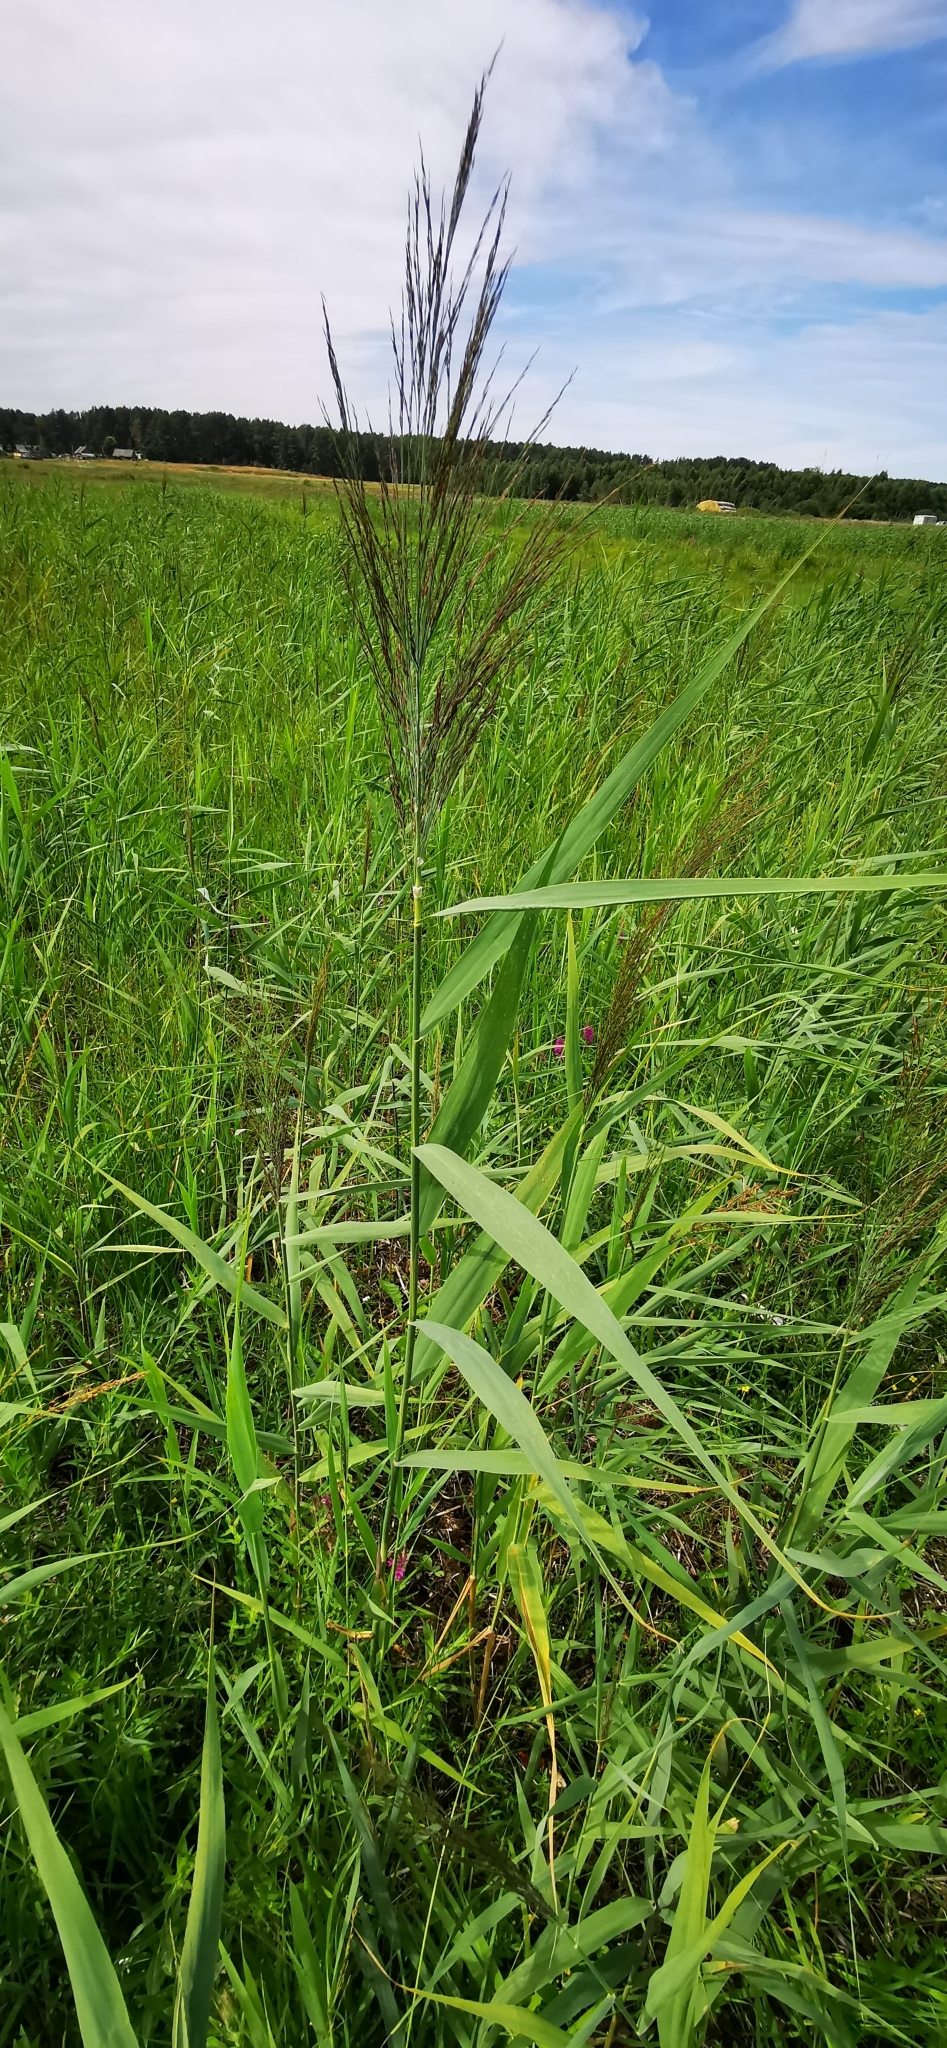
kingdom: Plantae
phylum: Tracheophyta
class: Liliopsida
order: Poales
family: Poaceae
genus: Phragmites
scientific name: Phragmites australis
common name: Common reed
